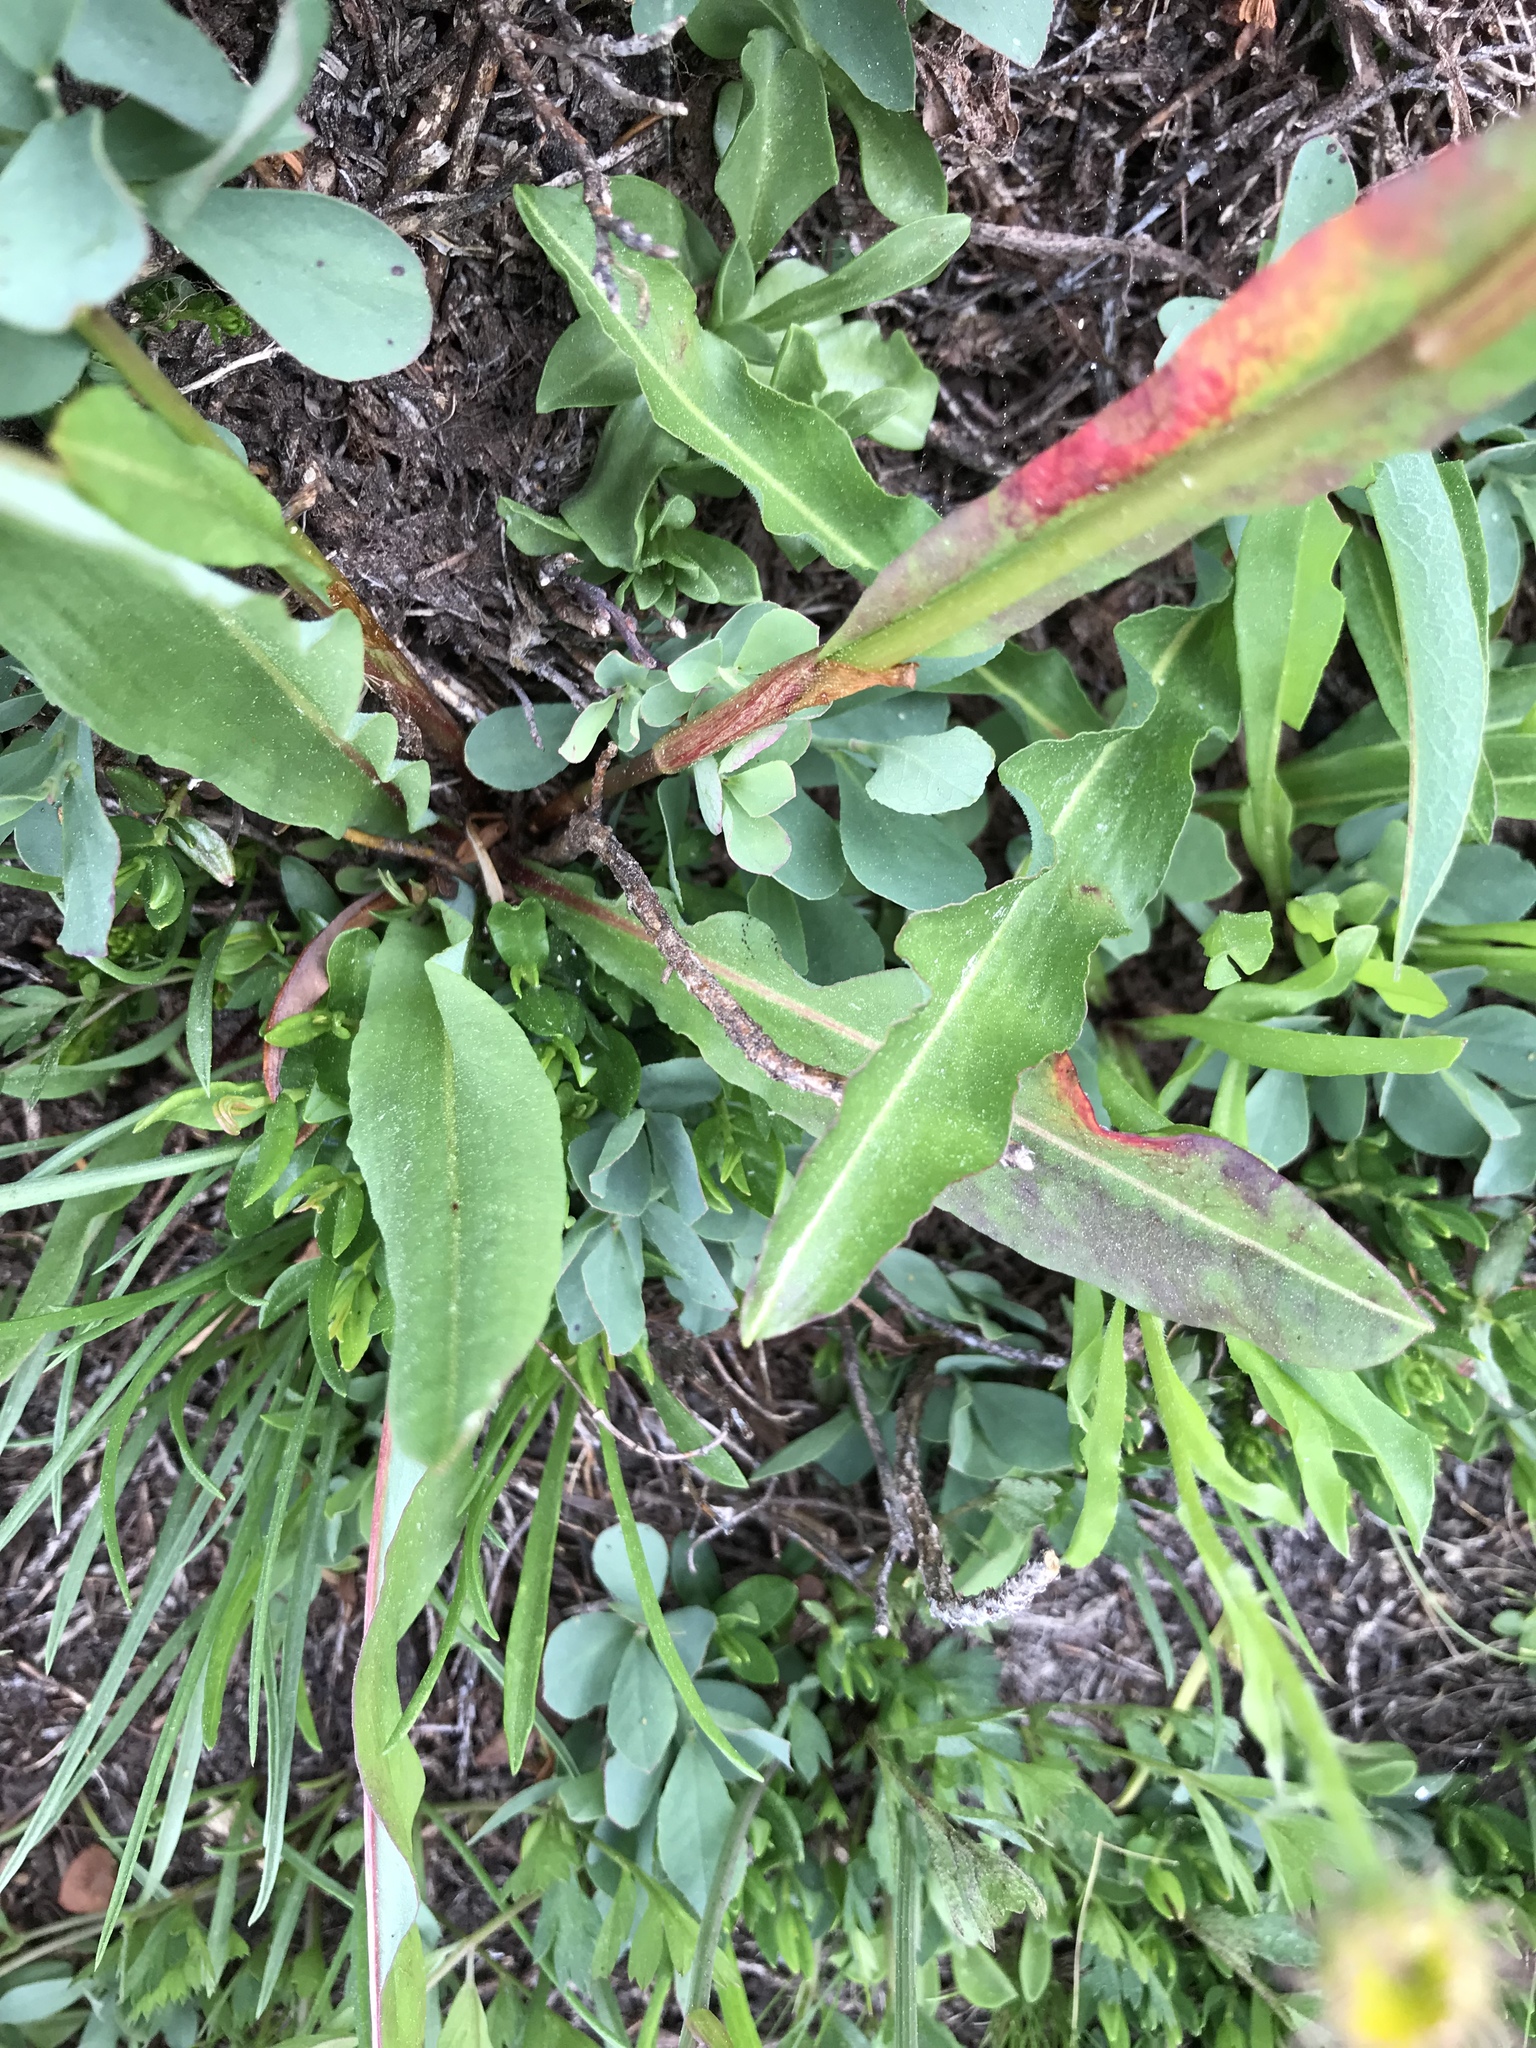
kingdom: Plantae
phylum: Tracheophyta
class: Magnoliopsida
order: Caryophyllales
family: Polygonaceae
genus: Bistorta
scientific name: Bistorta bistortoides
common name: American bistort
